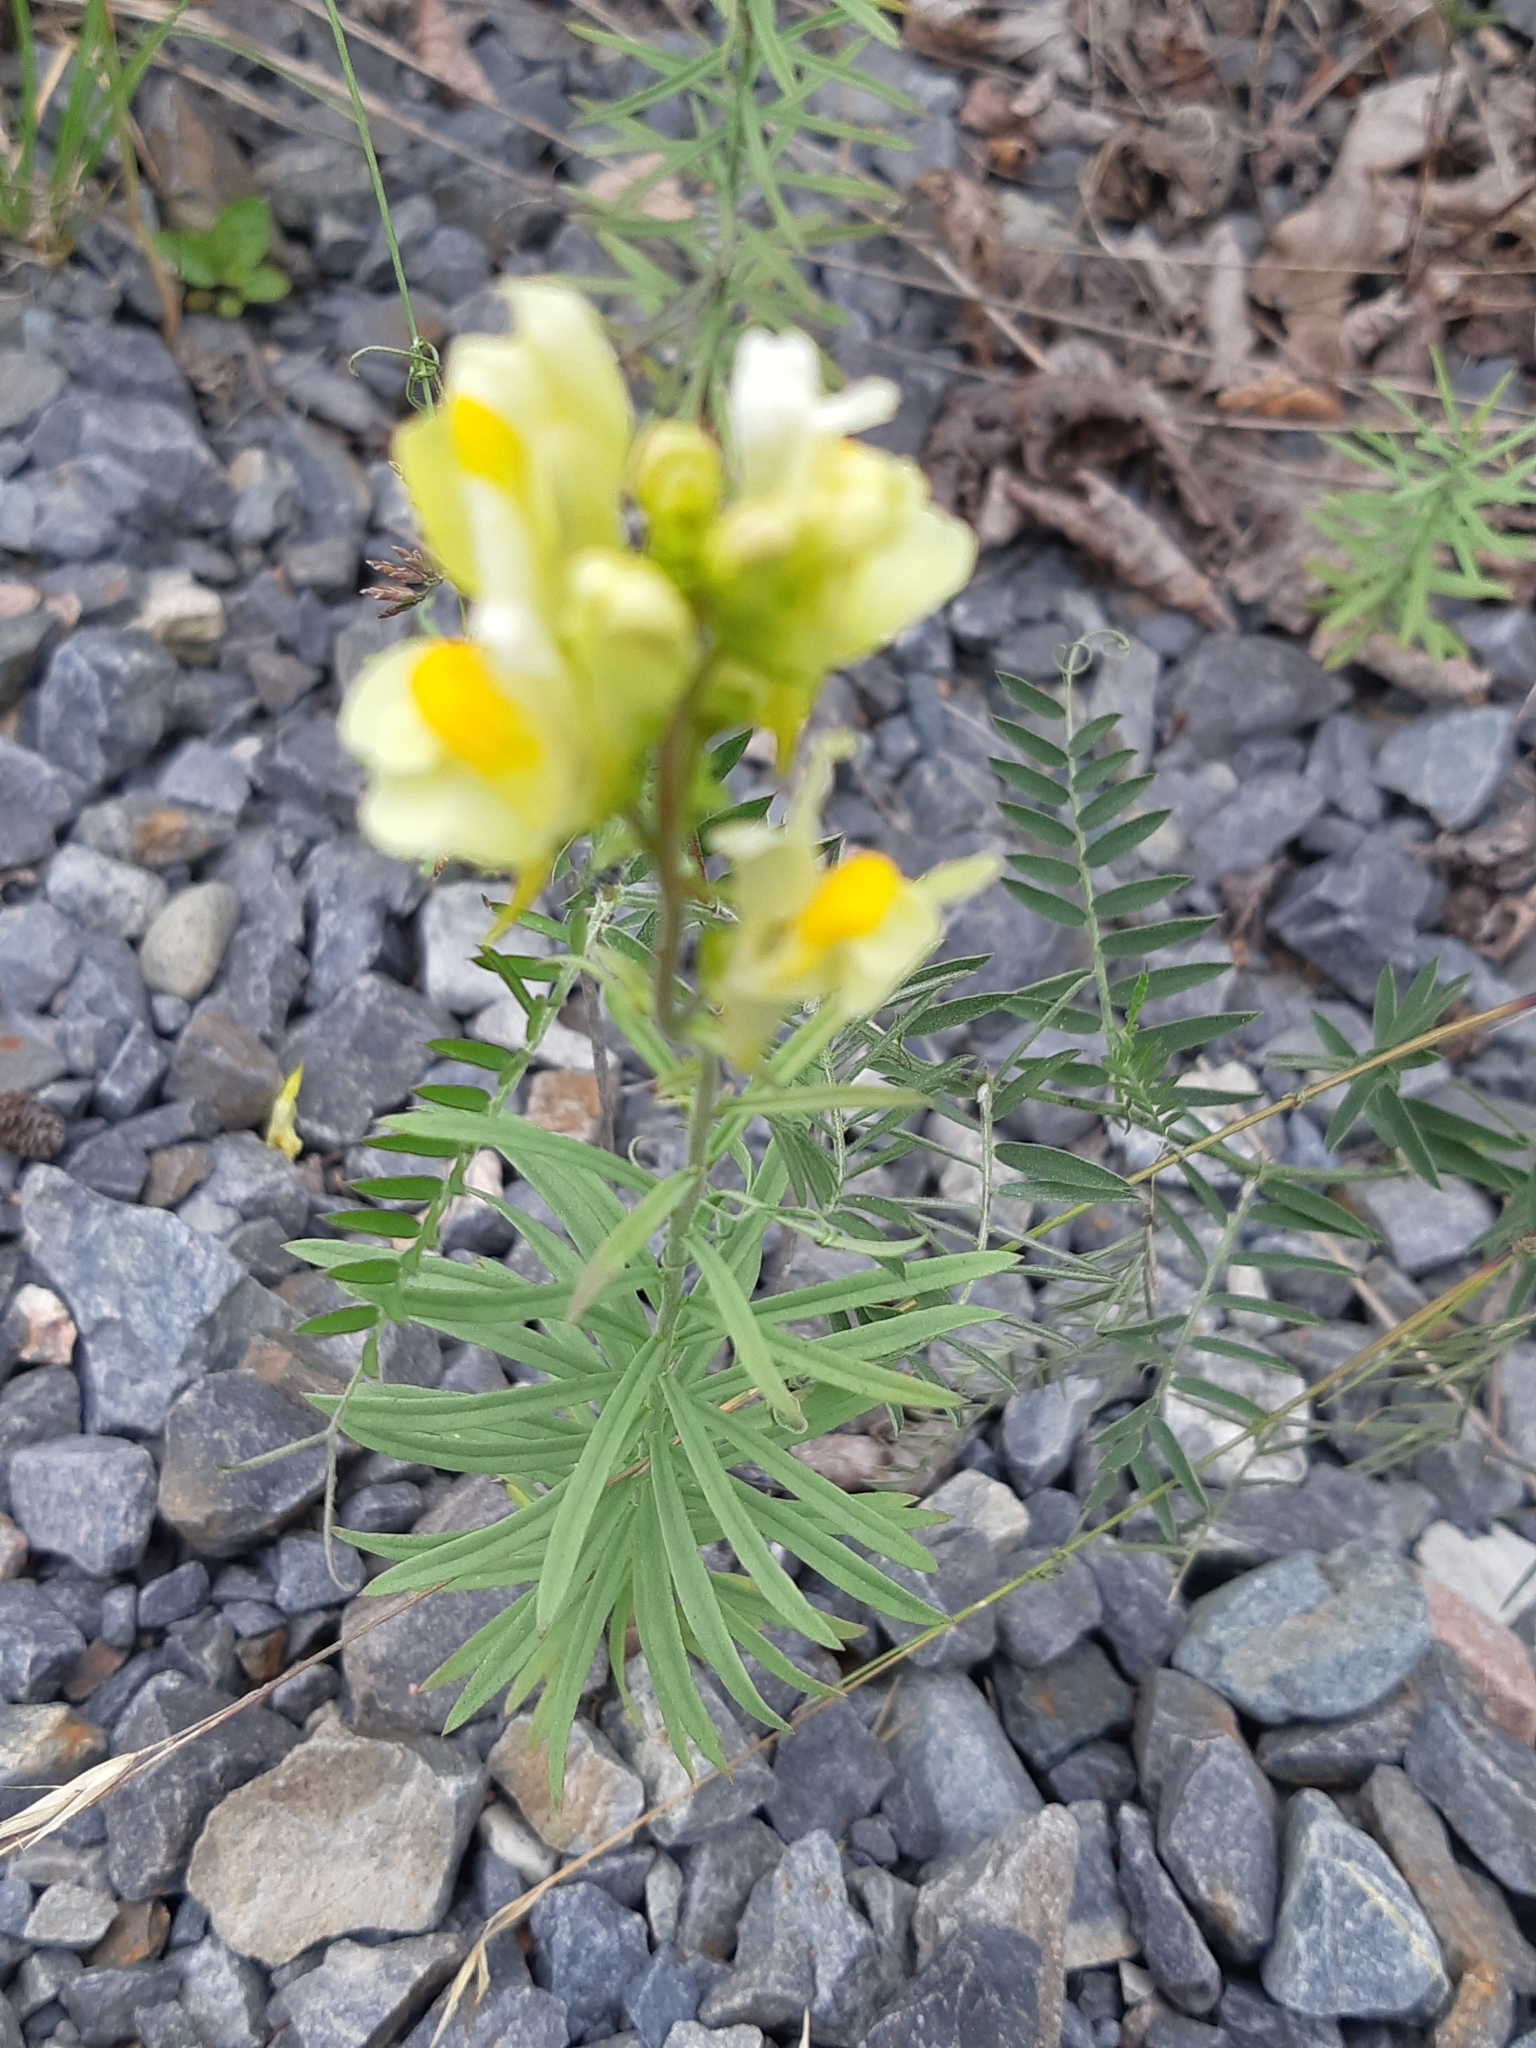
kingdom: Plantae
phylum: Tracheophyta
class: Magnoliopsida
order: Lamiales
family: Plantaginaceae
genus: Linaria
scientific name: Linaria vulgaris
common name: Butter and eggs
